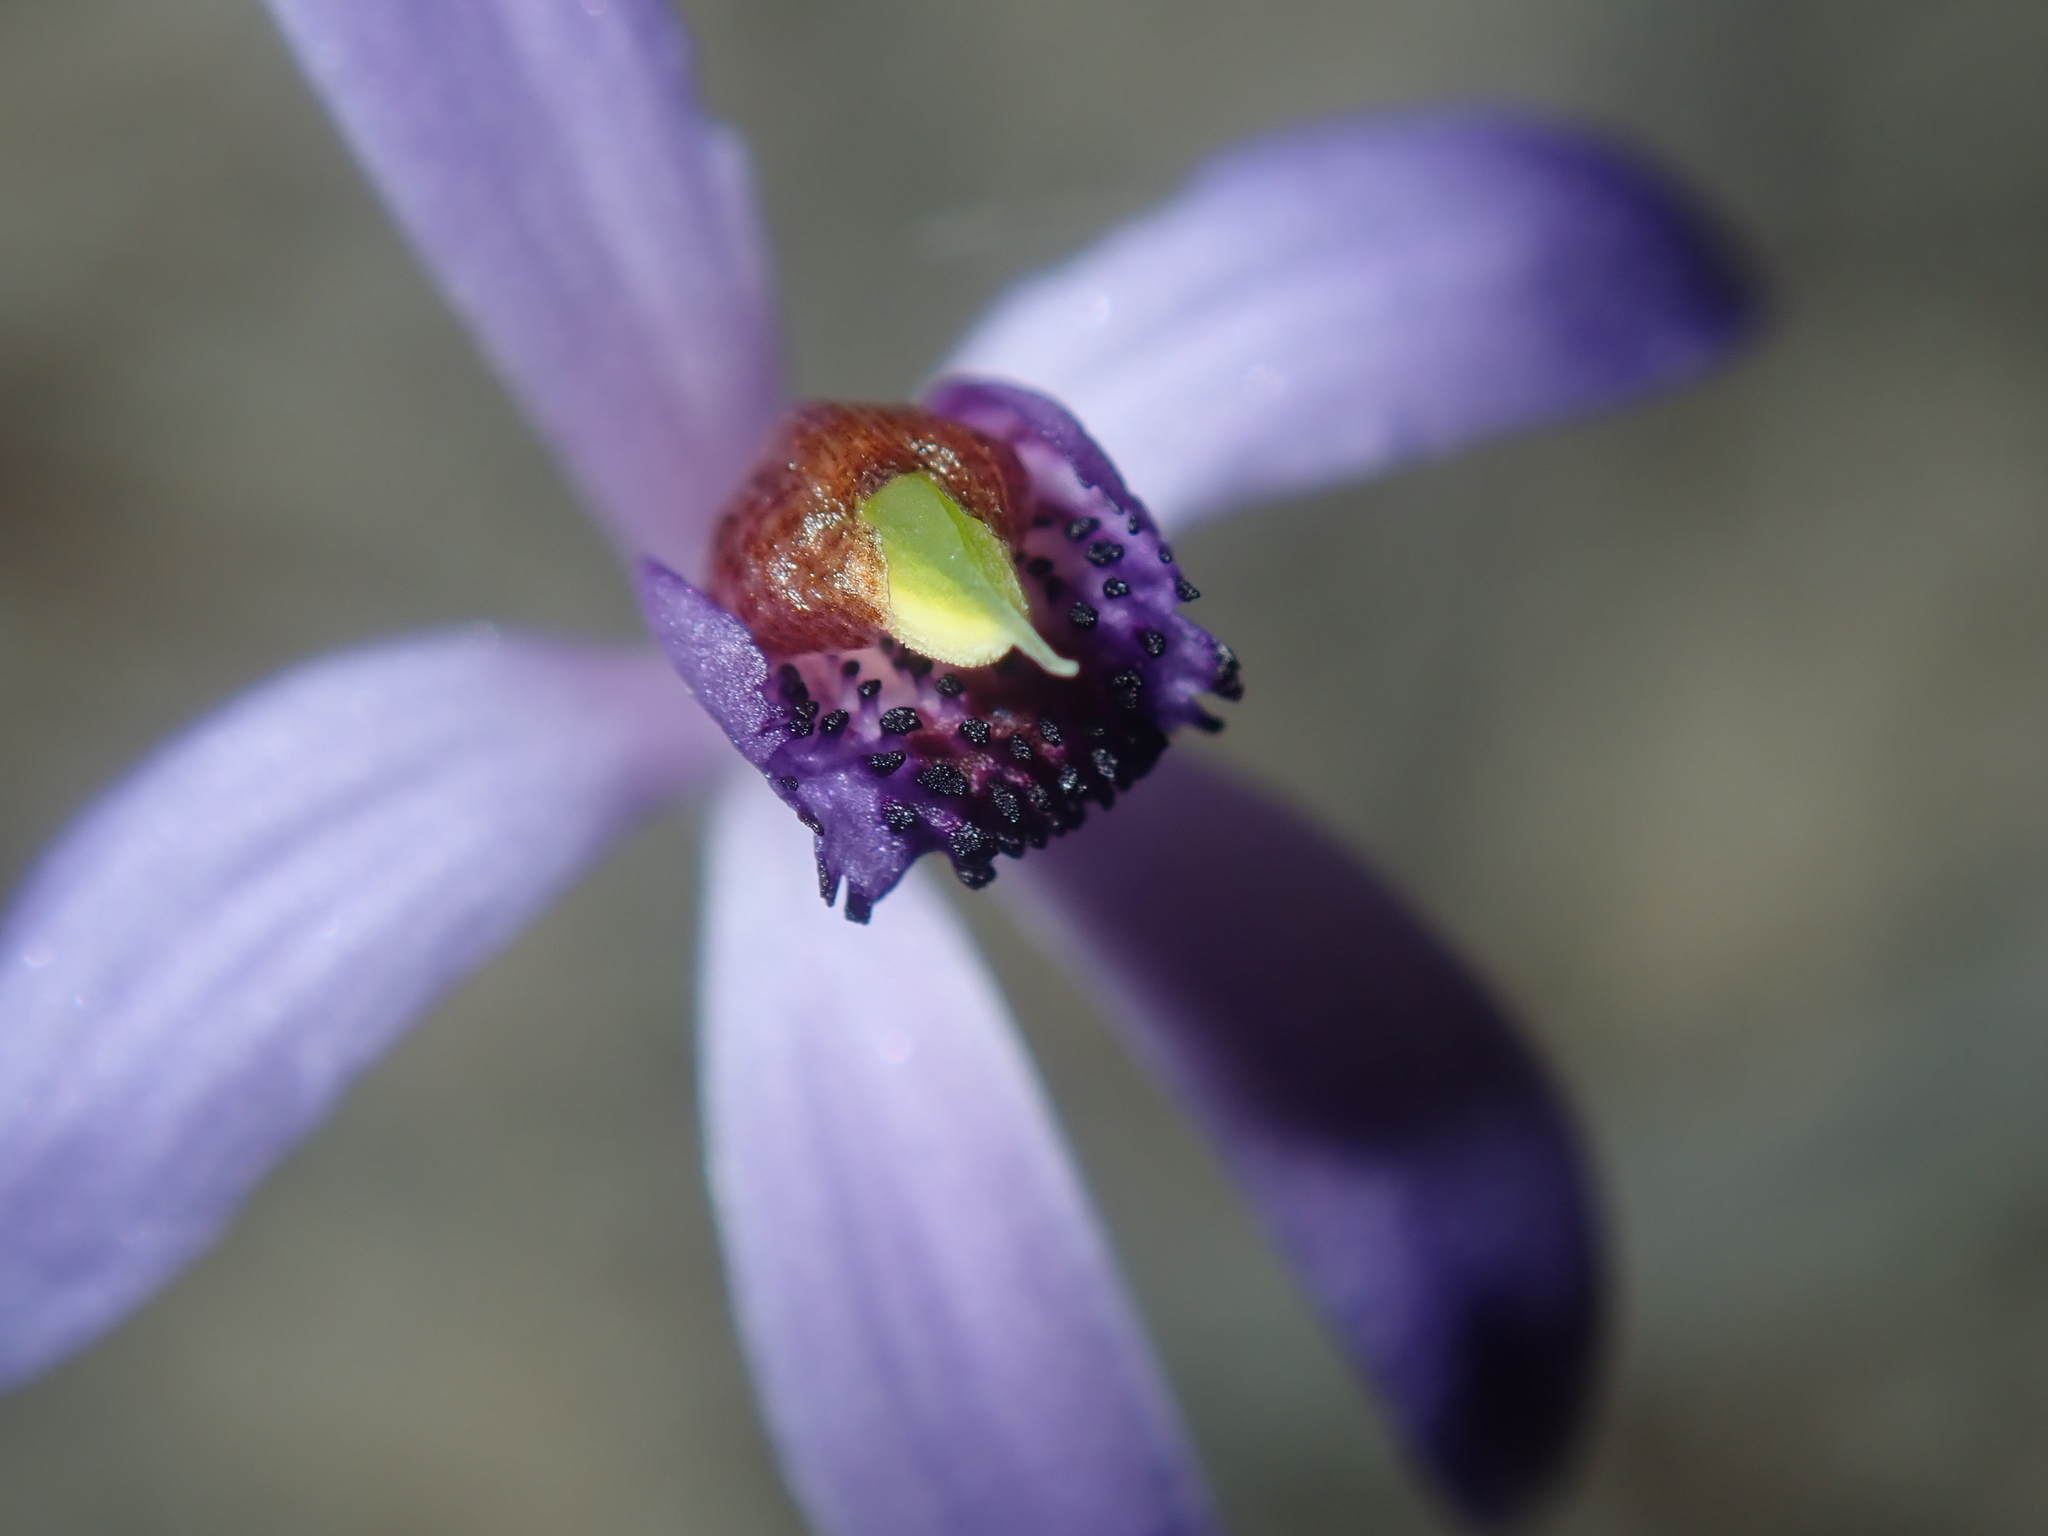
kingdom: Plantae
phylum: Tracheophyta
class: Liliopsida
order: Asparagales
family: Orchidaceae
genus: Pheladenia
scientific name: Pheladenia deformis
